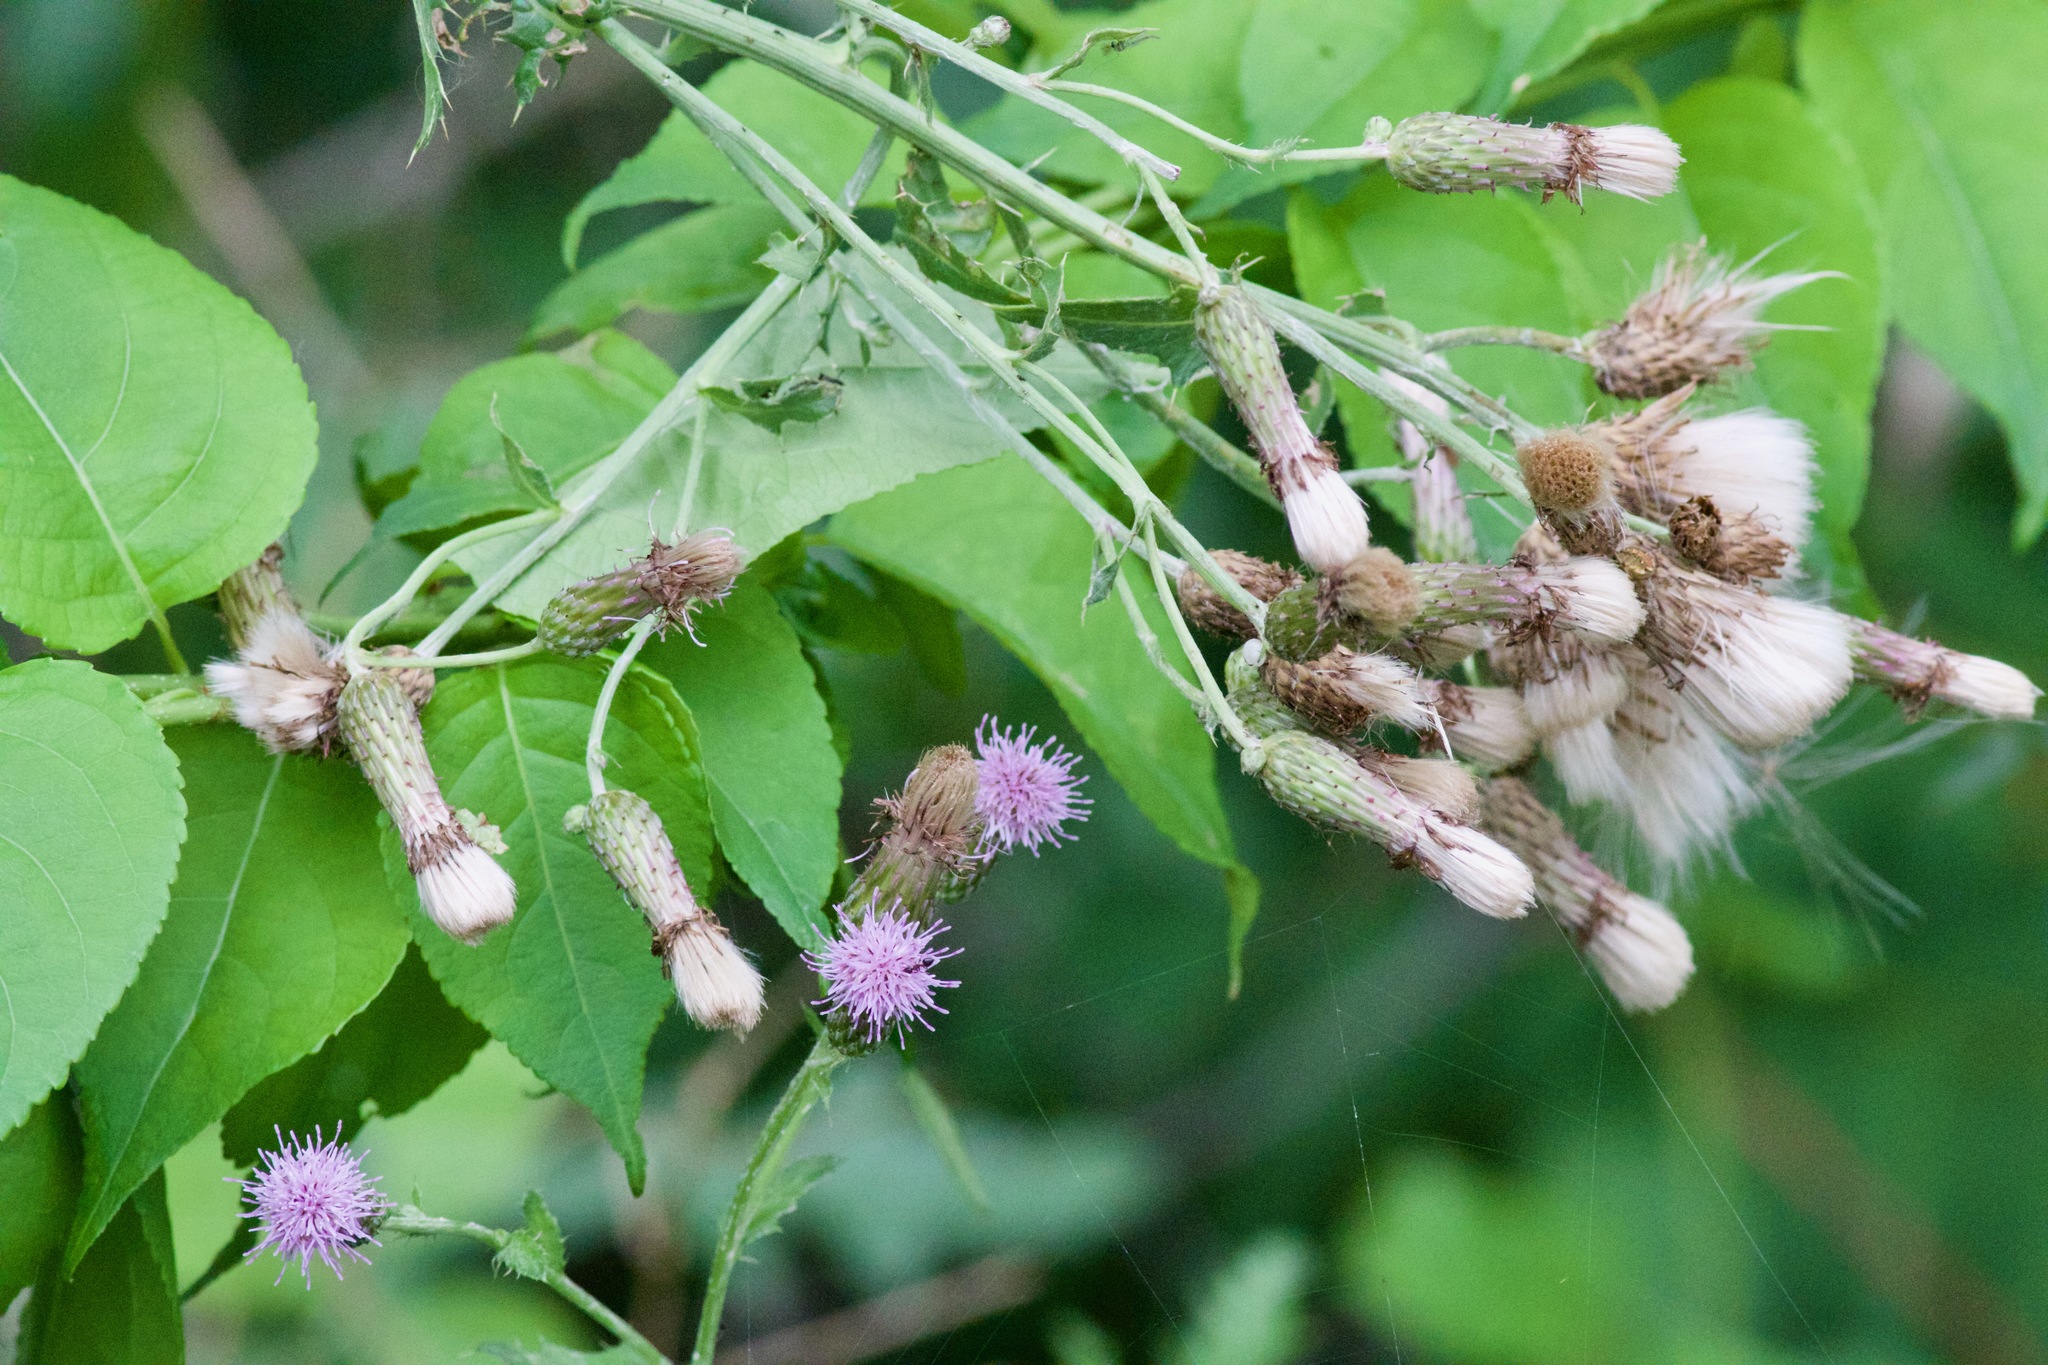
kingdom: Plantae
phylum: Tracheophyta
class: Magnoliopsida
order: Asterales
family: Asteraceae
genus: Cirsium
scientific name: Cirsium arvense
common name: Creeping thistle
